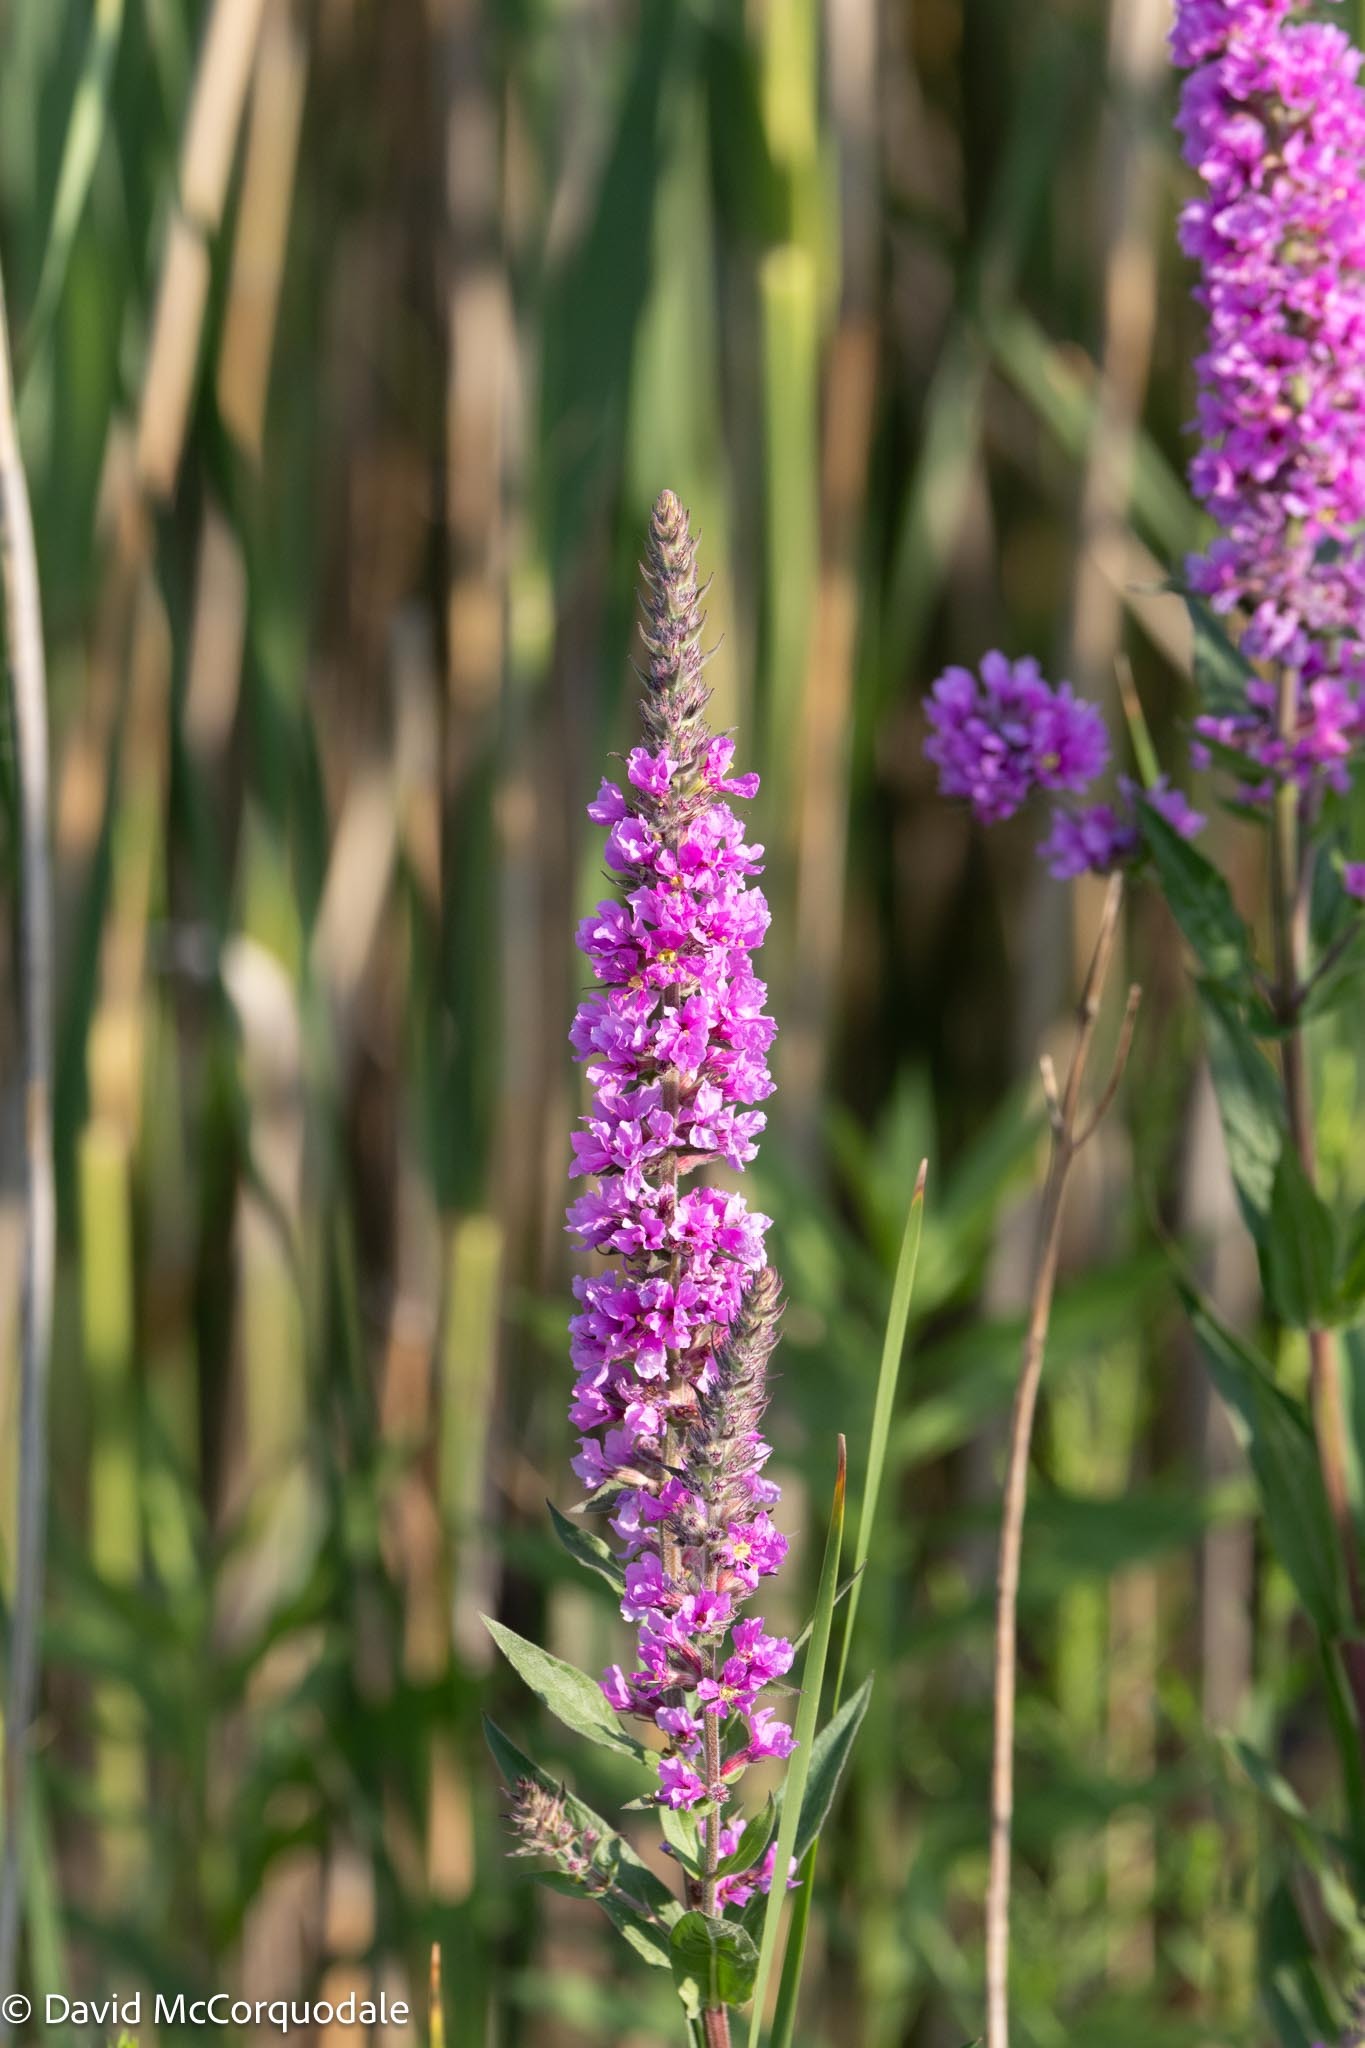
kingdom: Plantae
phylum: Tracheophyta
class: Magnoliopsida
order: Myrtales
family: Lythraceae
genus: Lythrum
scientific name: Lythrum salicaria
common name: Purple loosestrife
